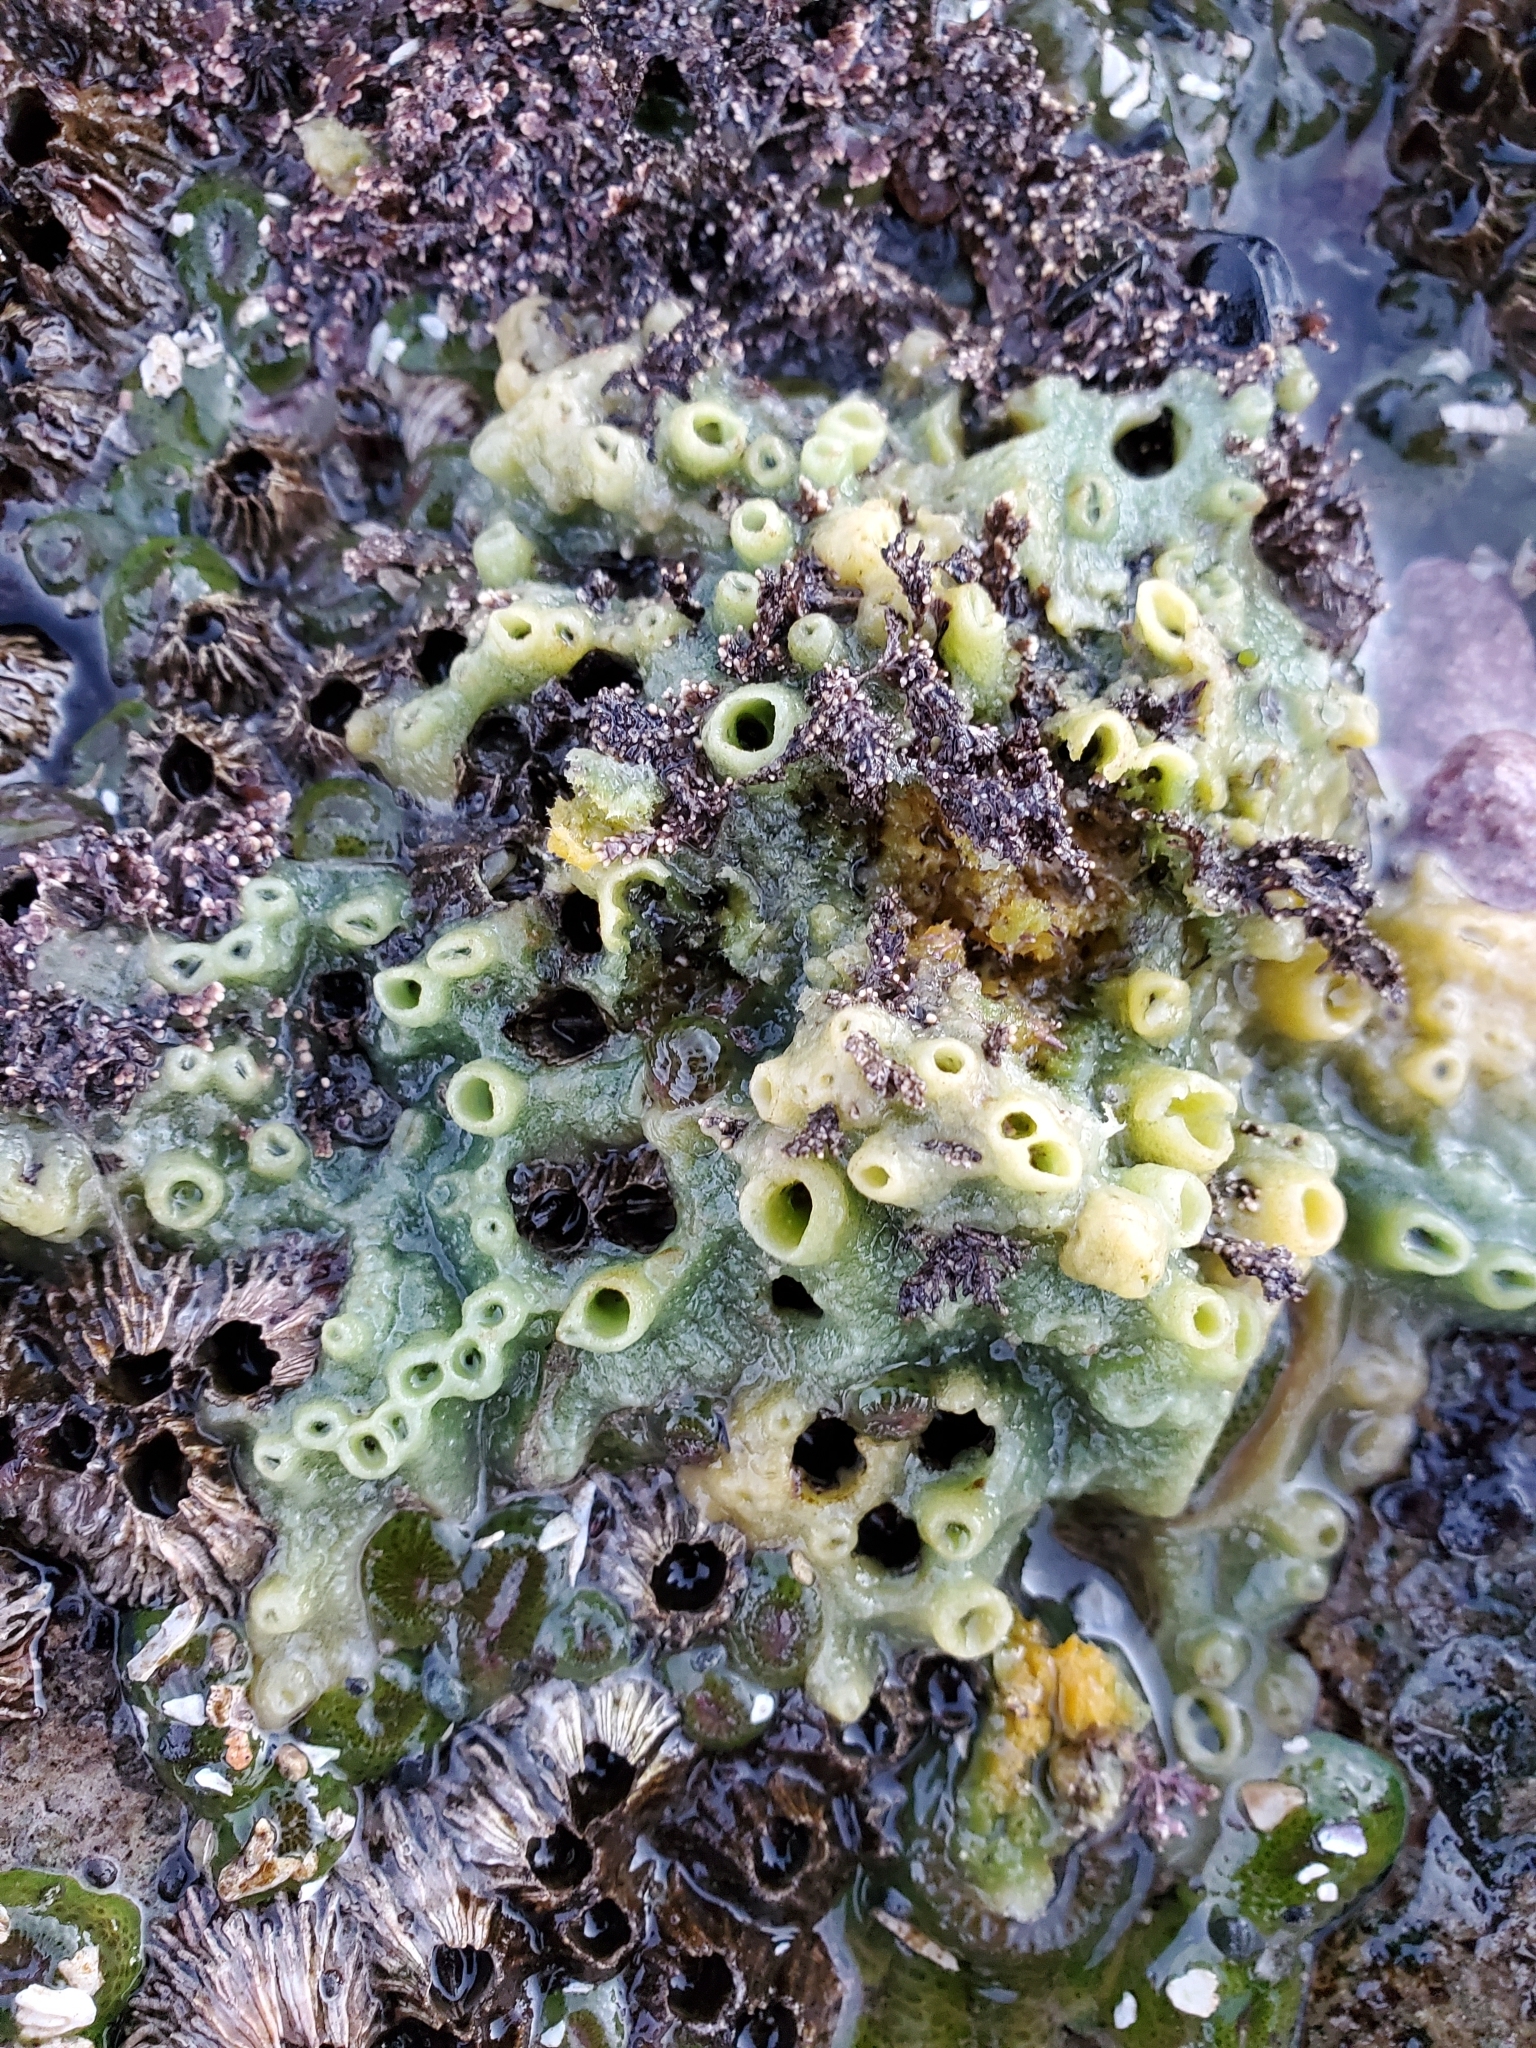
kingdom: Animalia
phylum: Porifera
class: Demospongiae
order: Suberitida
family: Halichondriidae
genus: Halichondria
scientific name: Halichondria panicea
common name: Breadcrumb sponge
